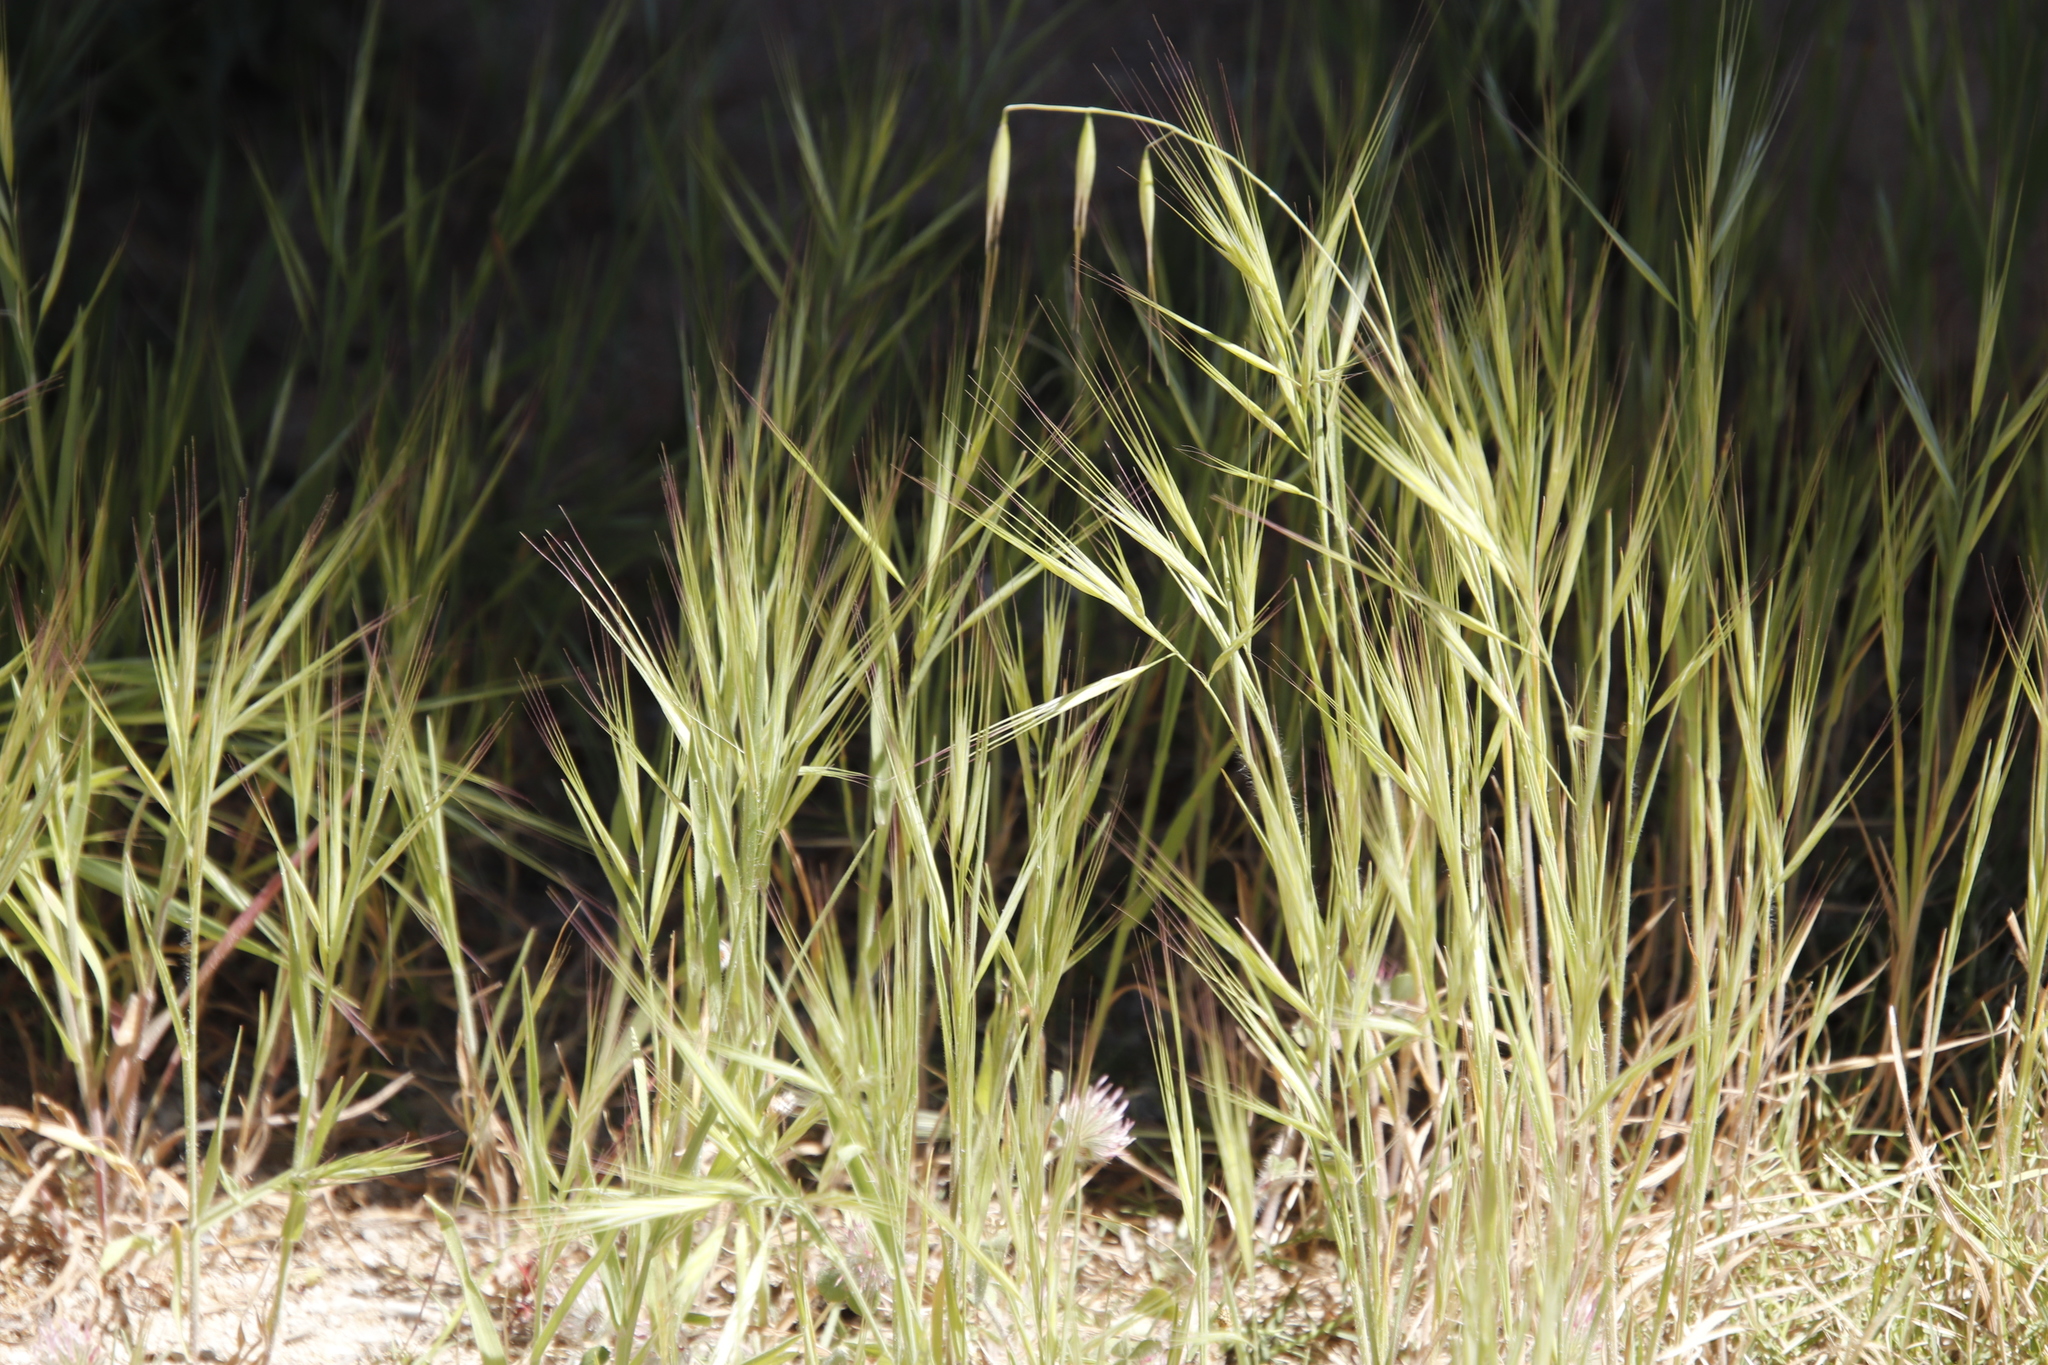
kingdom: Plantae
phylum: Tracheophyta
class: Liliopsida
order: Poales
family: Poaceae
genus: Avena
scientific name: Avena
